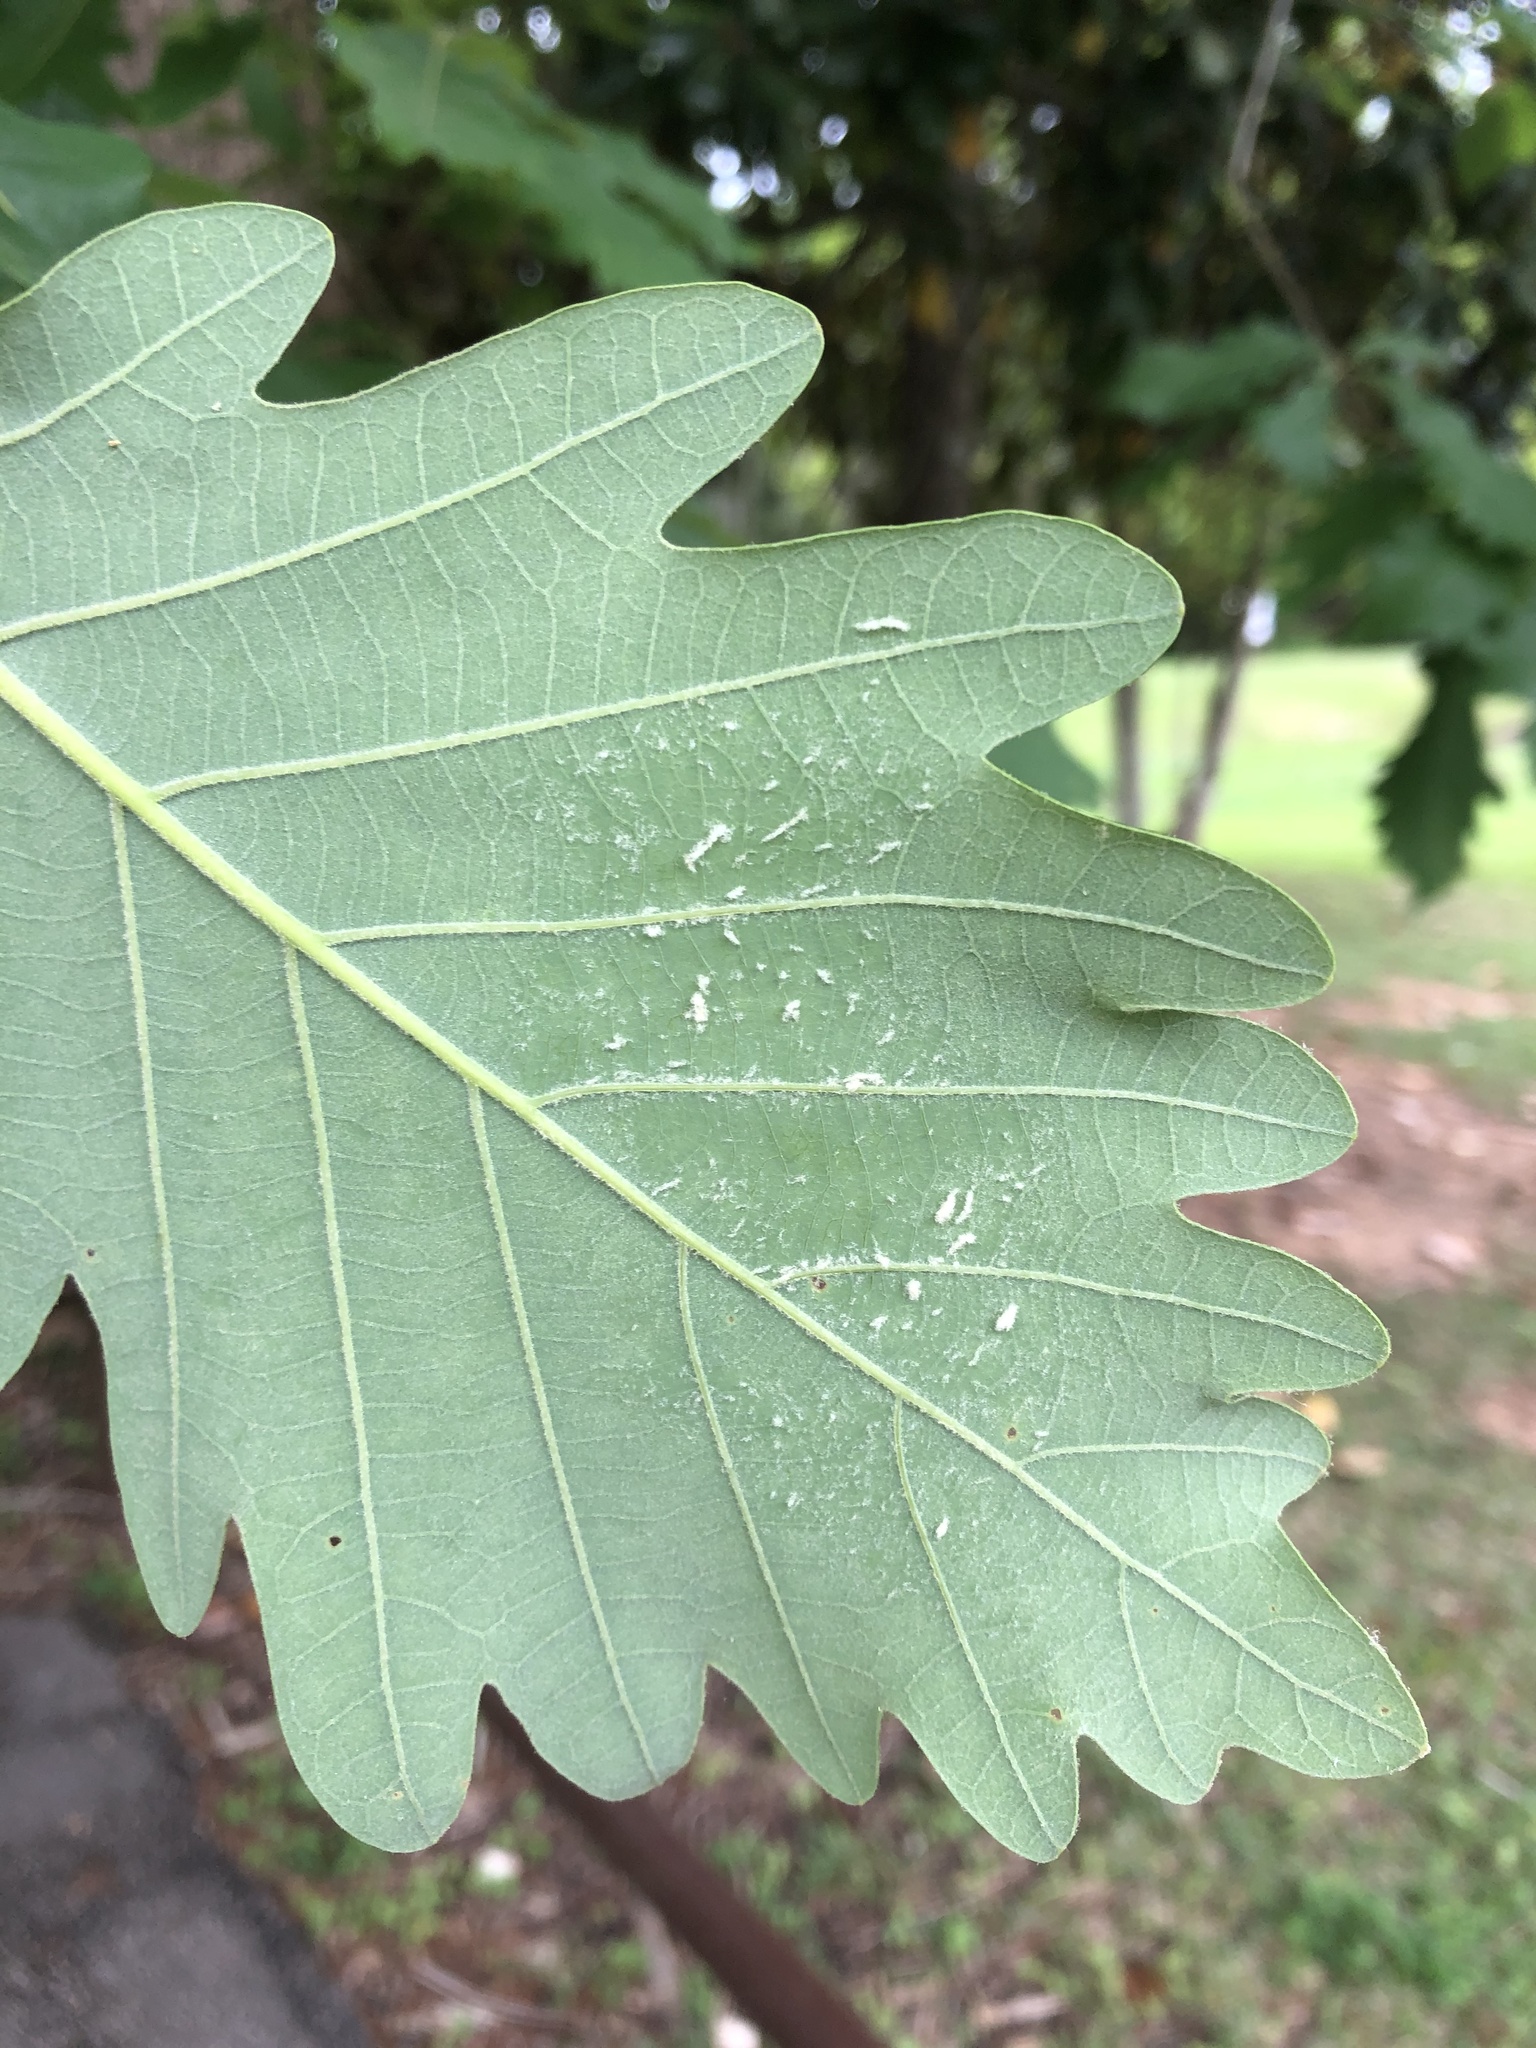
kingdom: Plantae
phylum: Tracheophyta
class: Magnoliopsida
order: Fagales
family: Fagaceae
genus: Quercus
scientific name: Quercus michauxii
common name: Swamp chestnut oak
